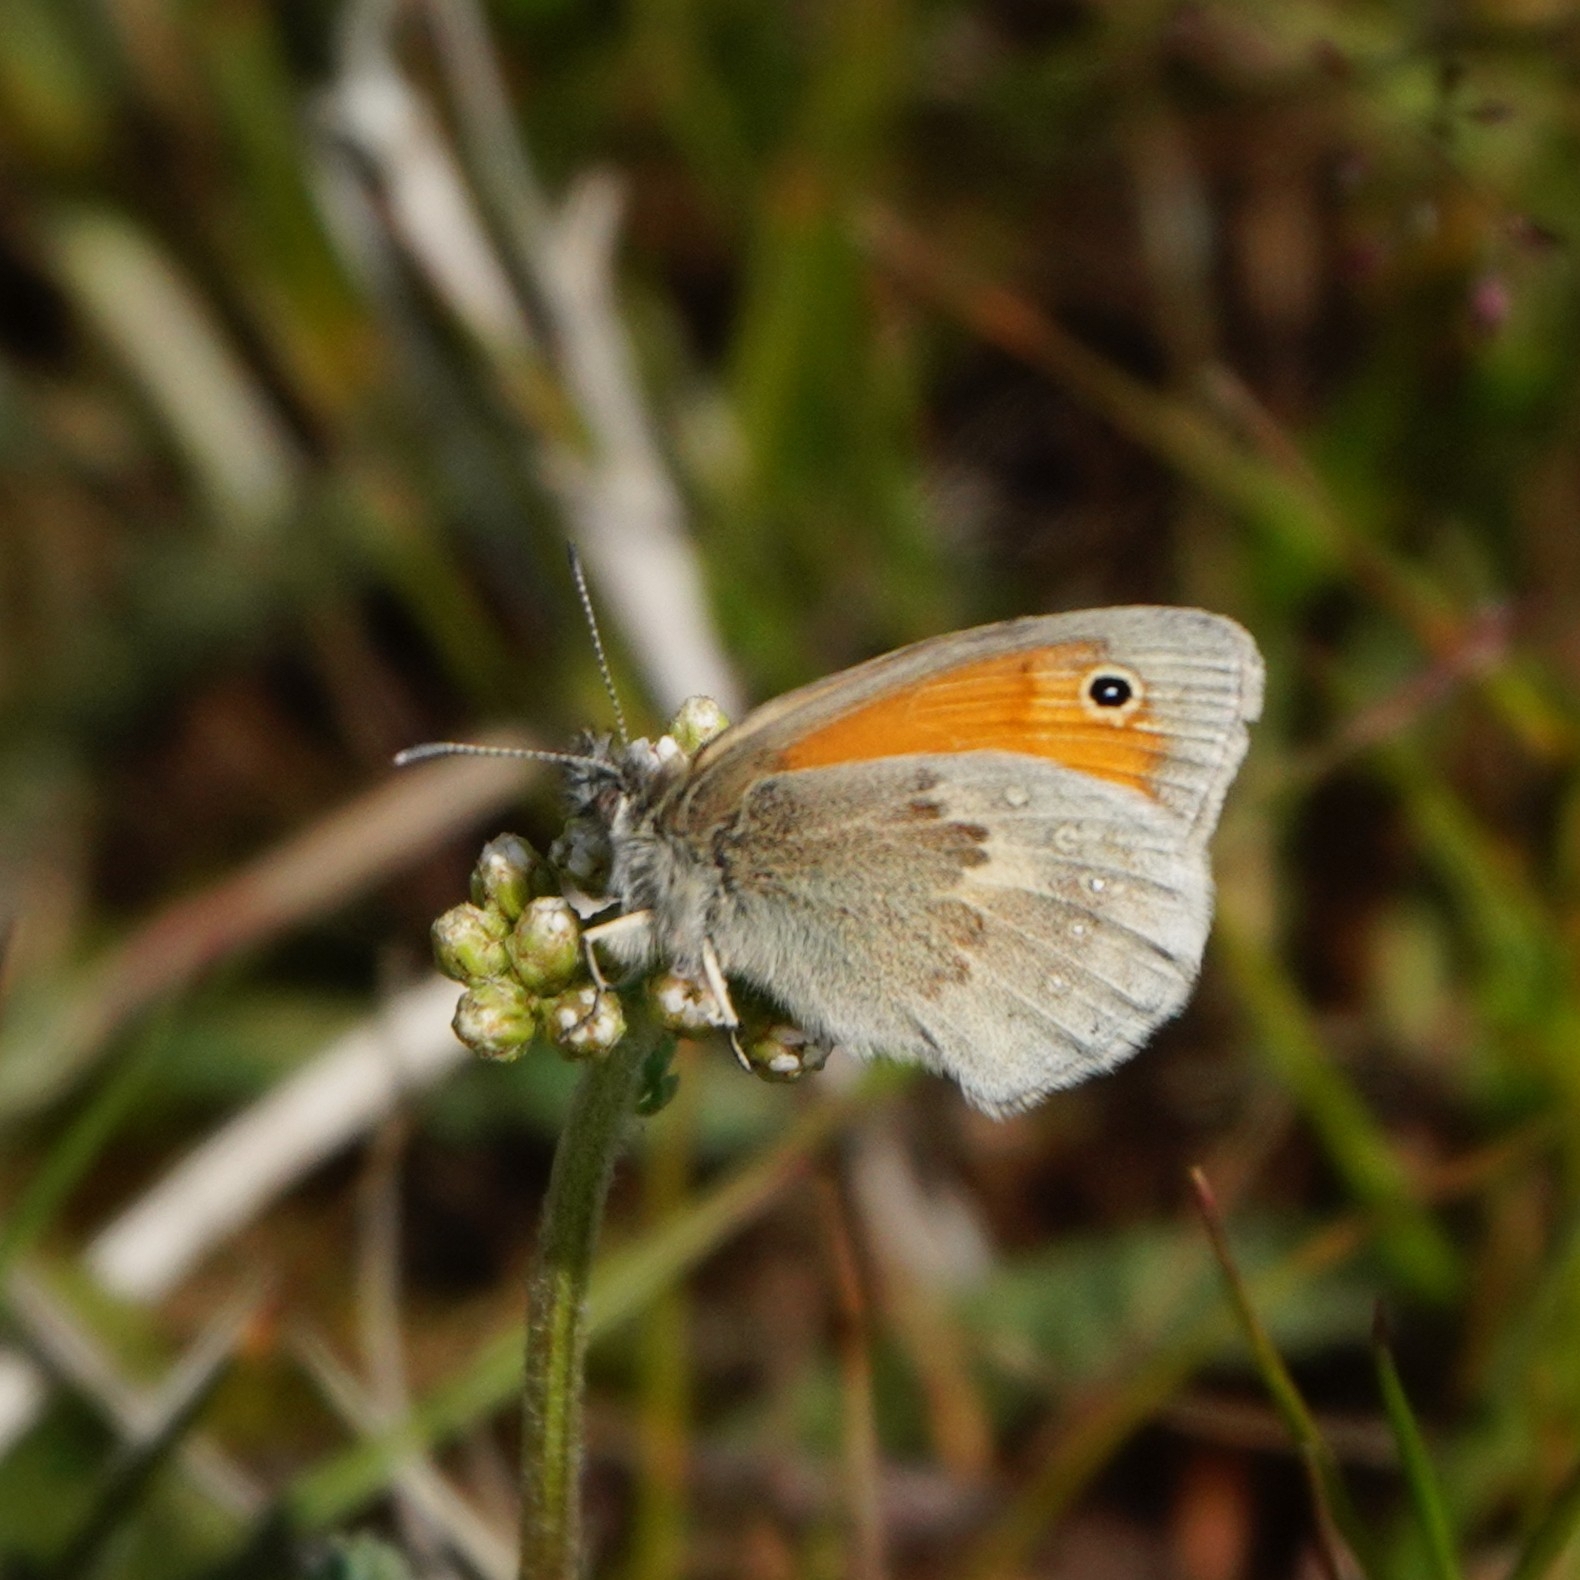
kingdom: Animalia
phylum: Arthropoda
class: Insecta
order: Lepidoptera
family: Nymphalidae
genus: Coenonympha
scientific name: Coenonympha pamphilus
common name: Small heath
